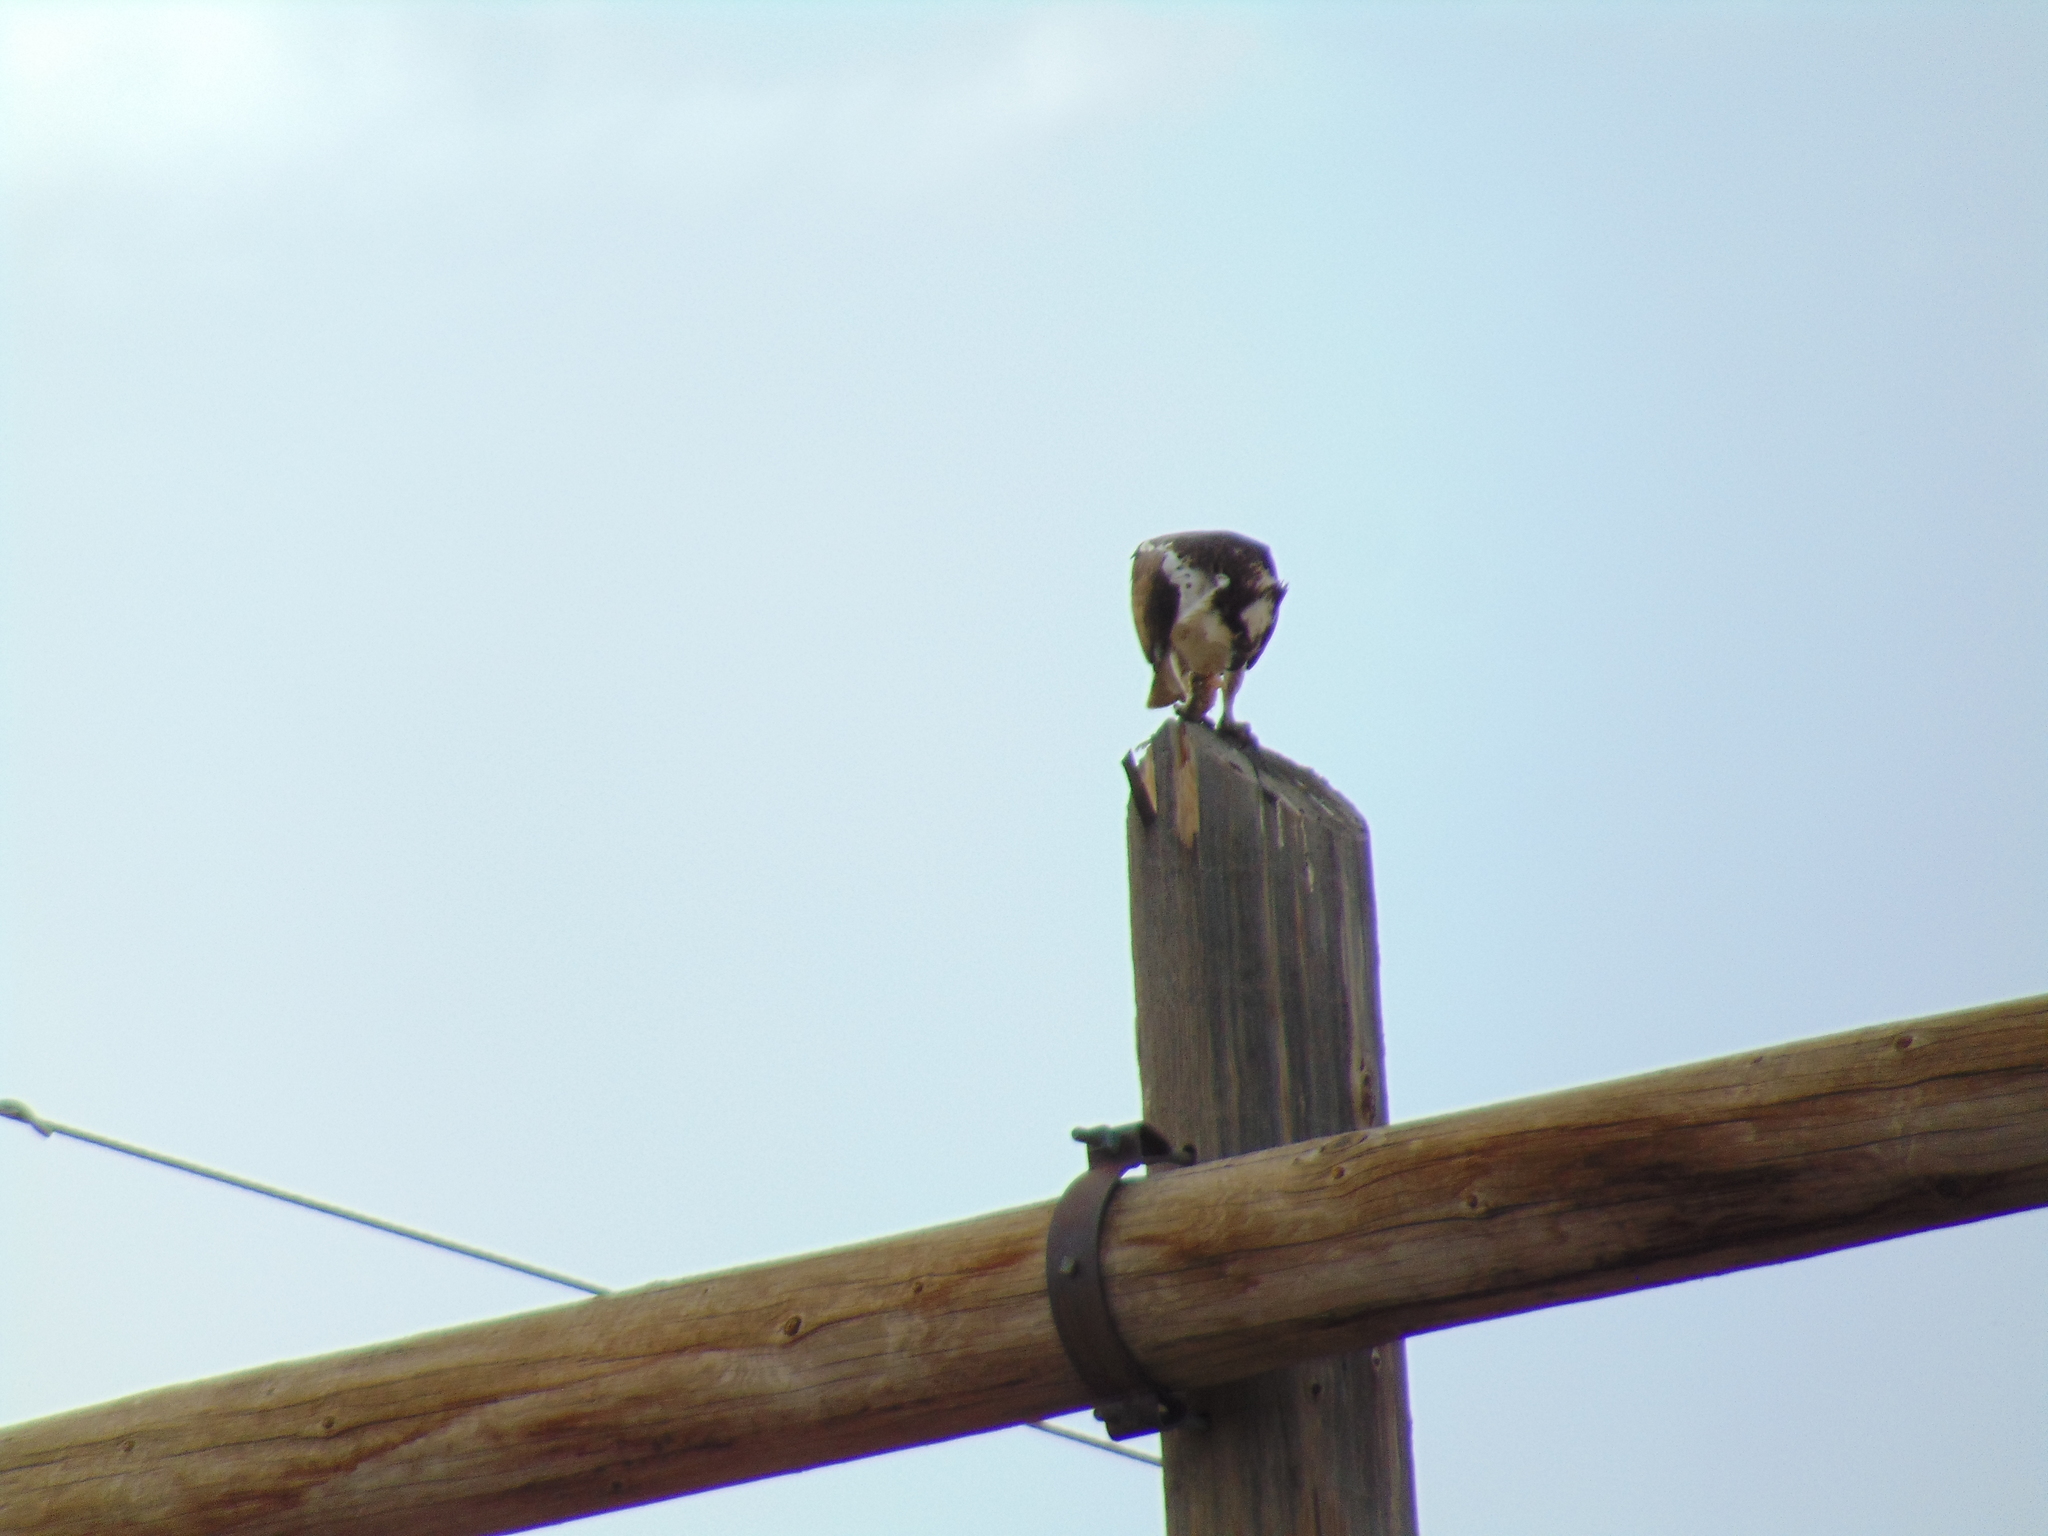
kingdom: Animalia
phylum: Chordata
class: Aves
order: Accipitriformes
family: Pandionidae
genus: Pandion
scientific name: Pandion haliaetus
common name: Osprey
